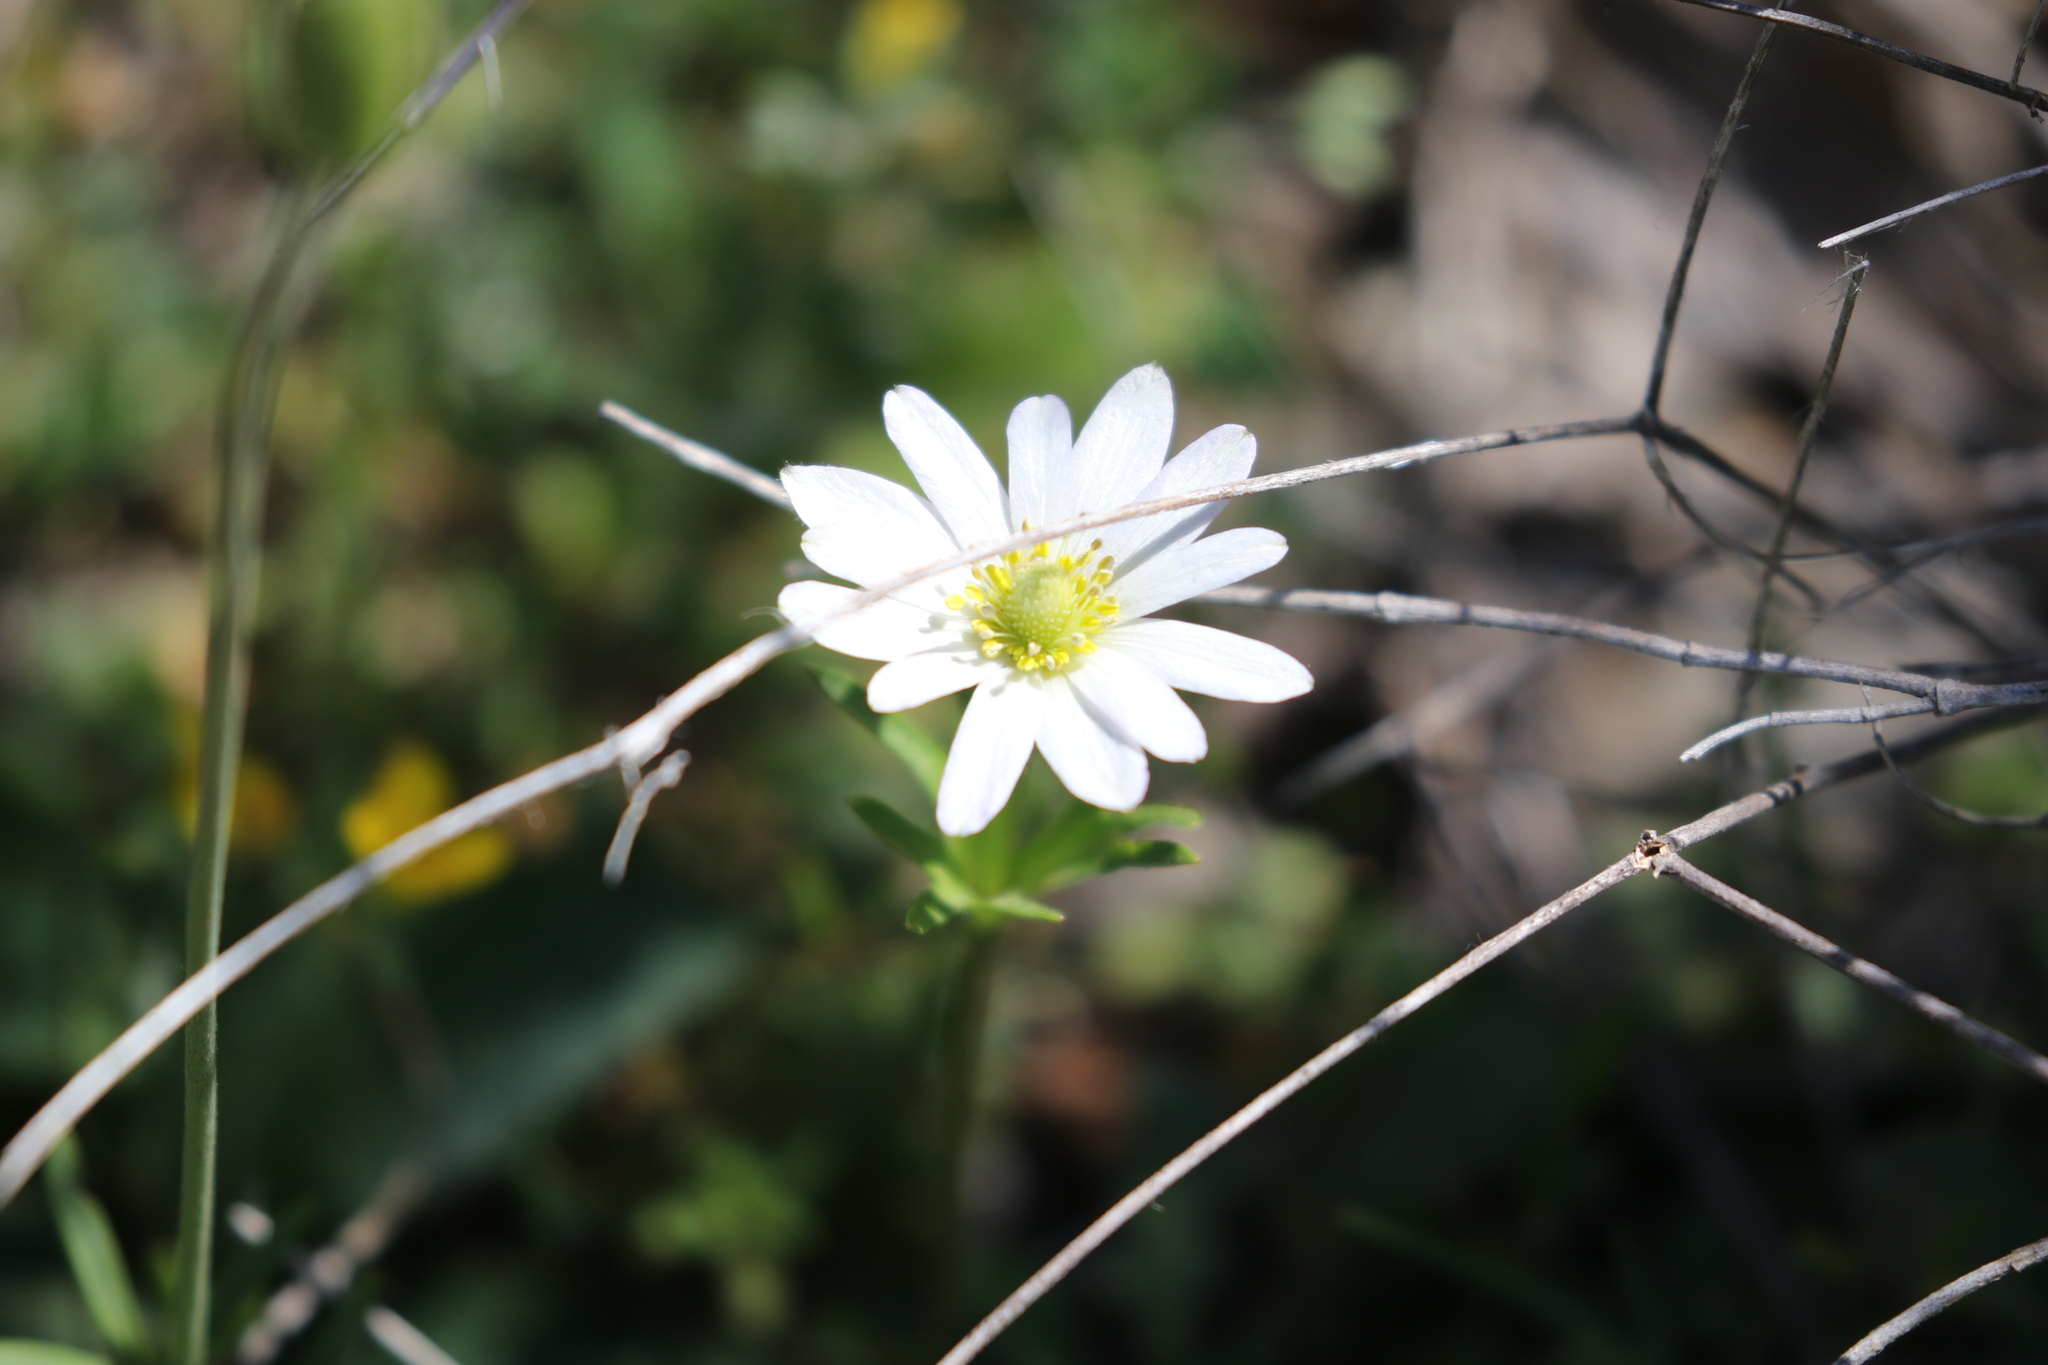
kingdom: Plantae
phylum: Tracheophyta
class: Magnoliopsida
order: Ranunculales
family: Ranunculaceae
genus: Anemone
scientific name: Anemone berlandieri
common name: Ten-petal anemone
